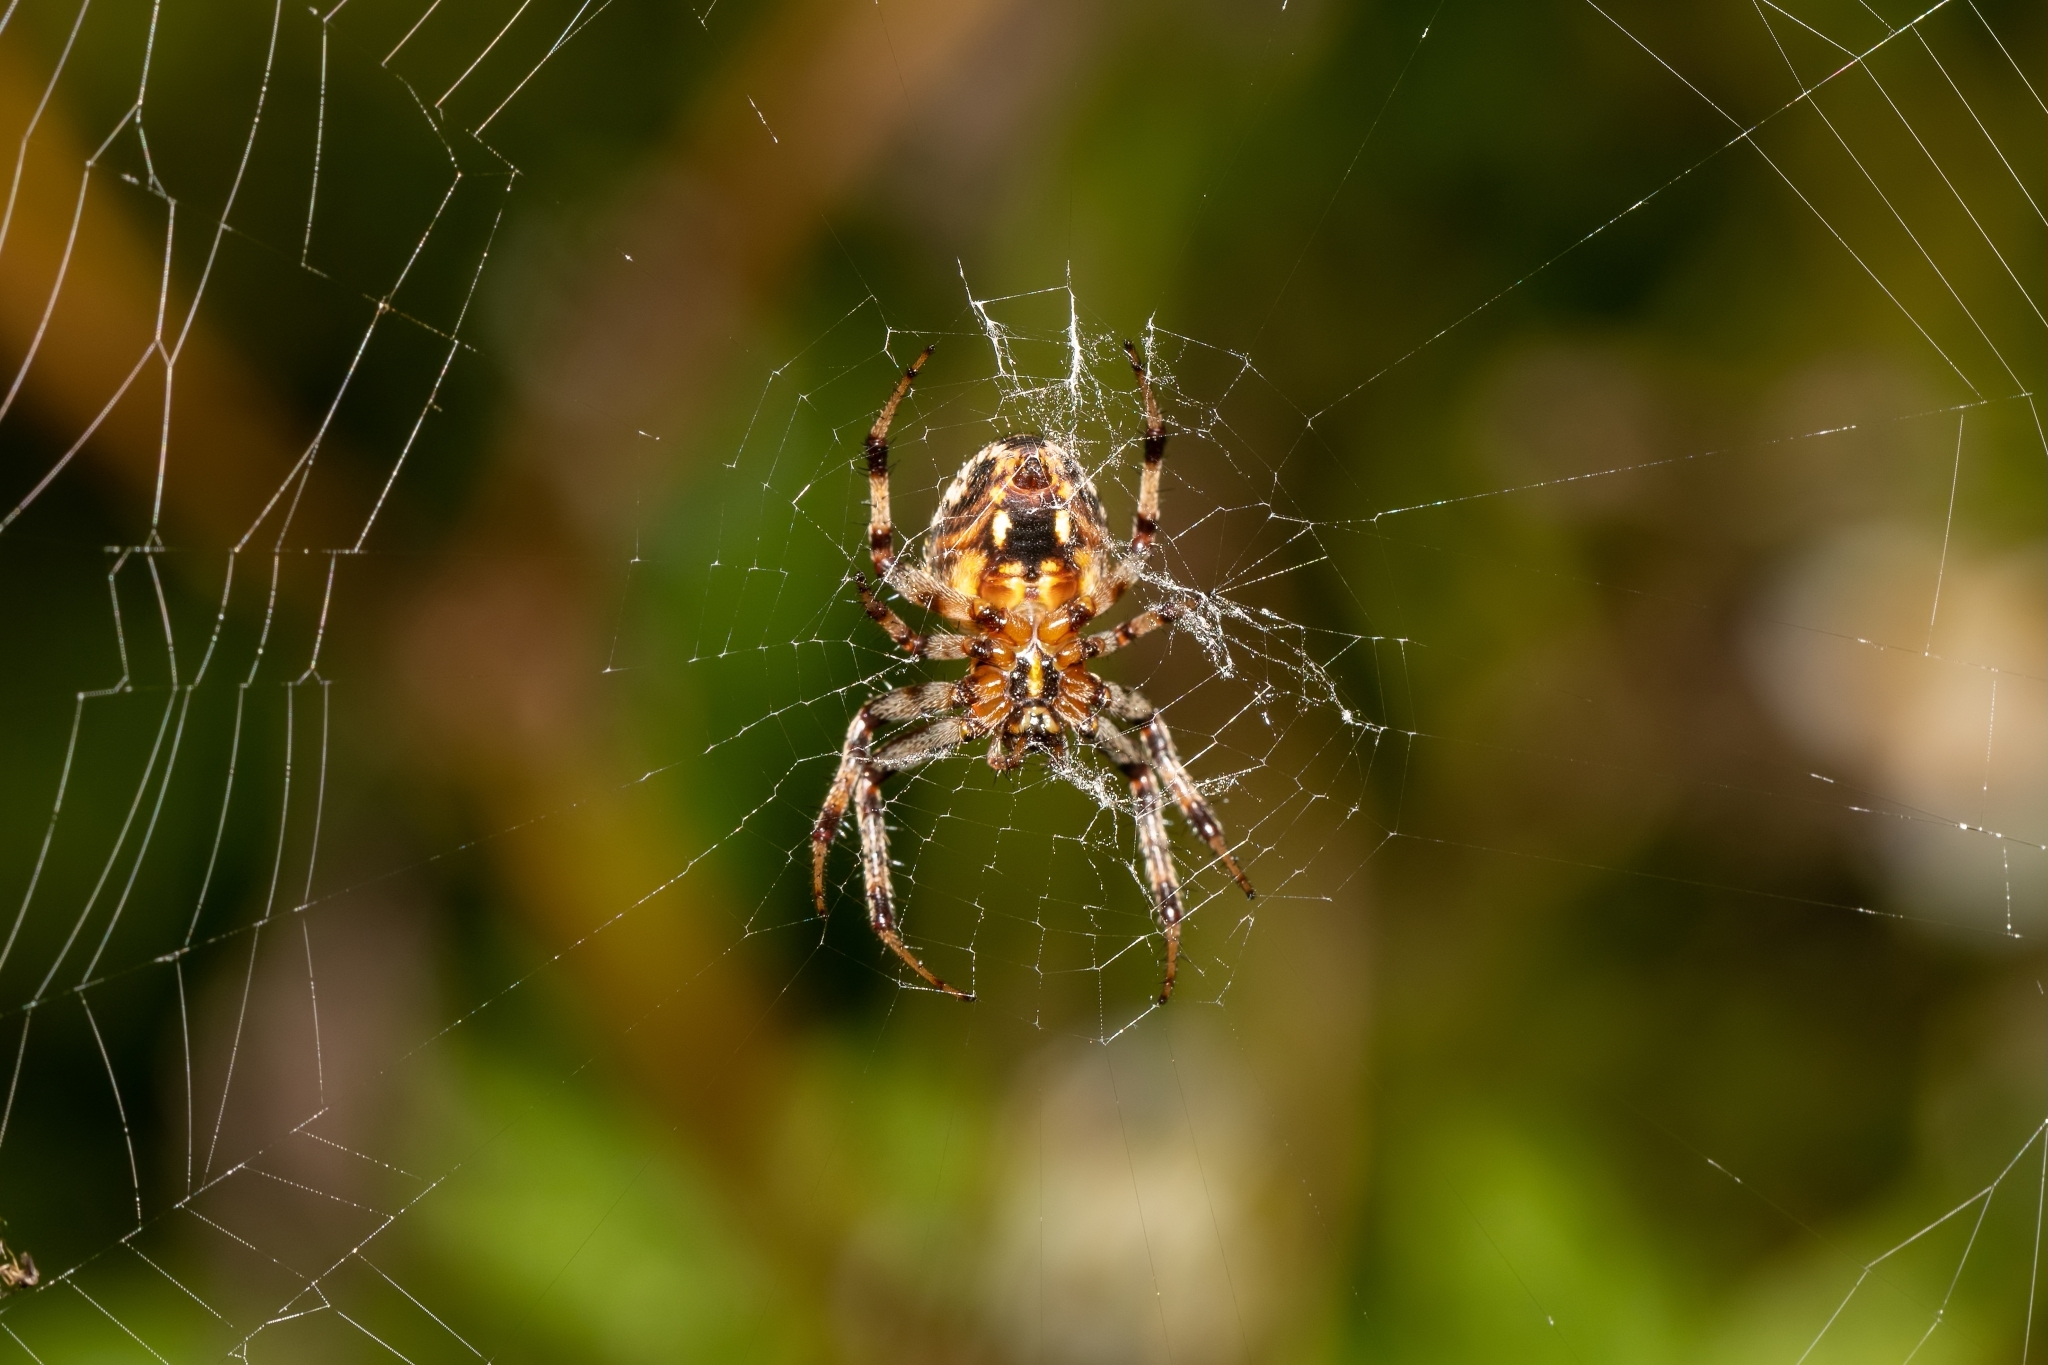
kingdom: Animalia
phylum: Arthropoda
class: Arachnida
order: Araneae
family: Araneidae
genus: Neoscona
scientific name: Neoscona arabesca
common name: Orb weavers
